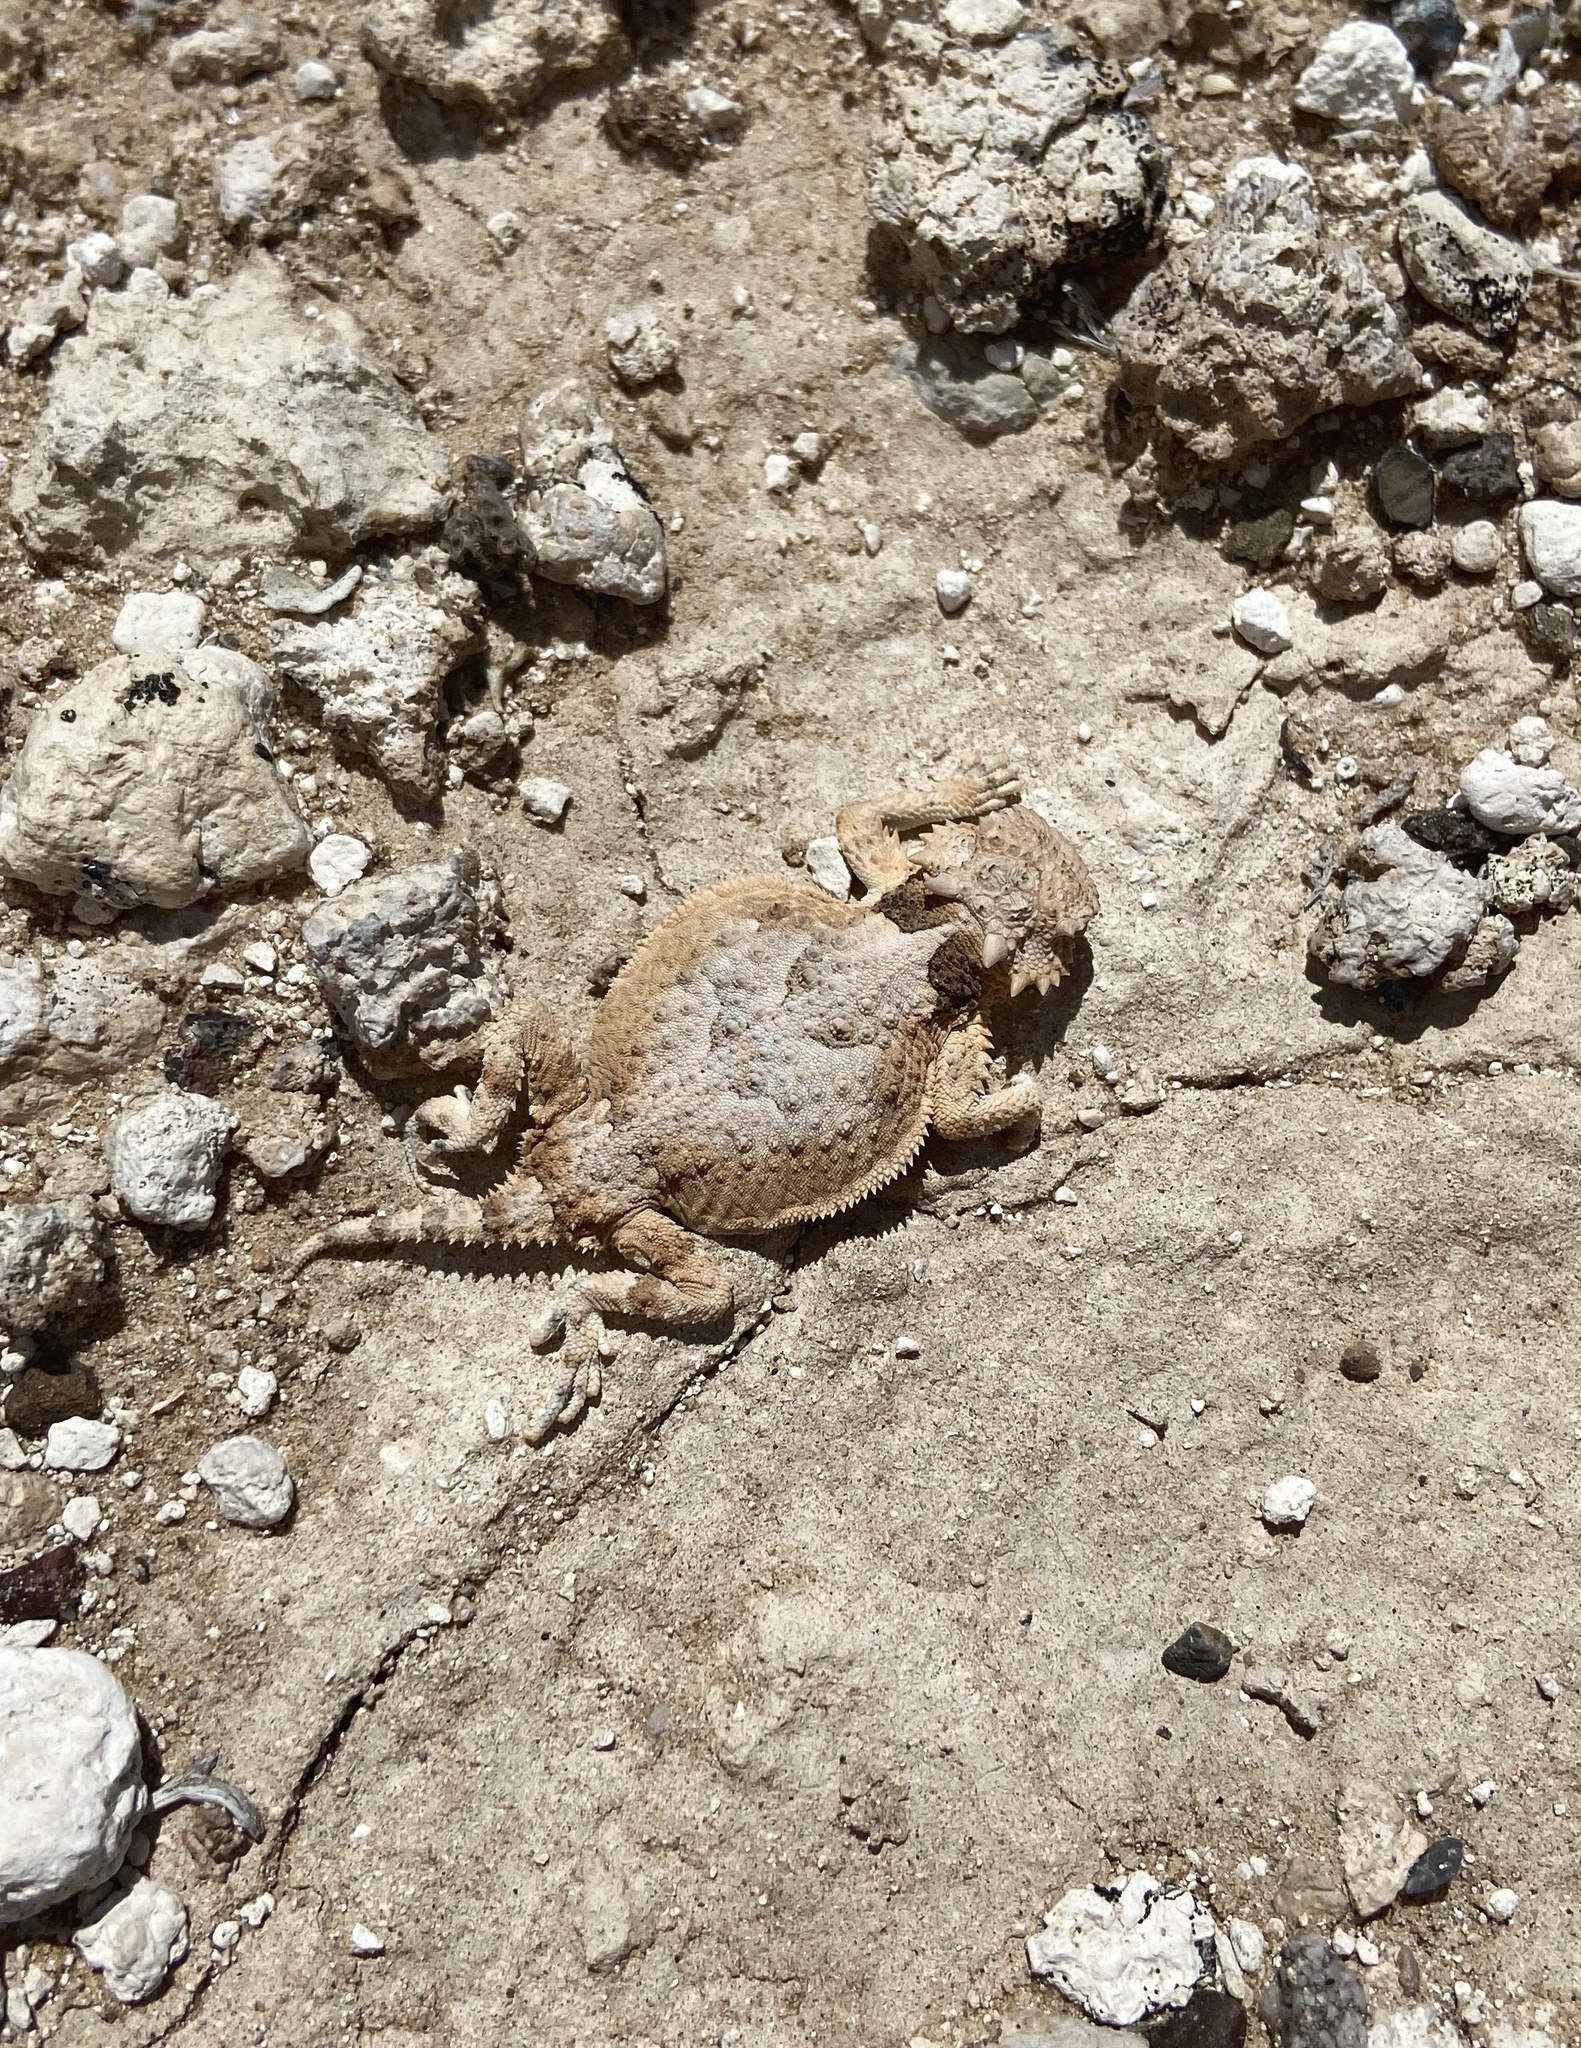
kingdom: Animalia
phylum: Chordata
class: Squamata
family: Phrynosomatidae
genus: Phrynosoma
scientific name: Phrynosoma platyrhinos
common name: Desert horned lizard
